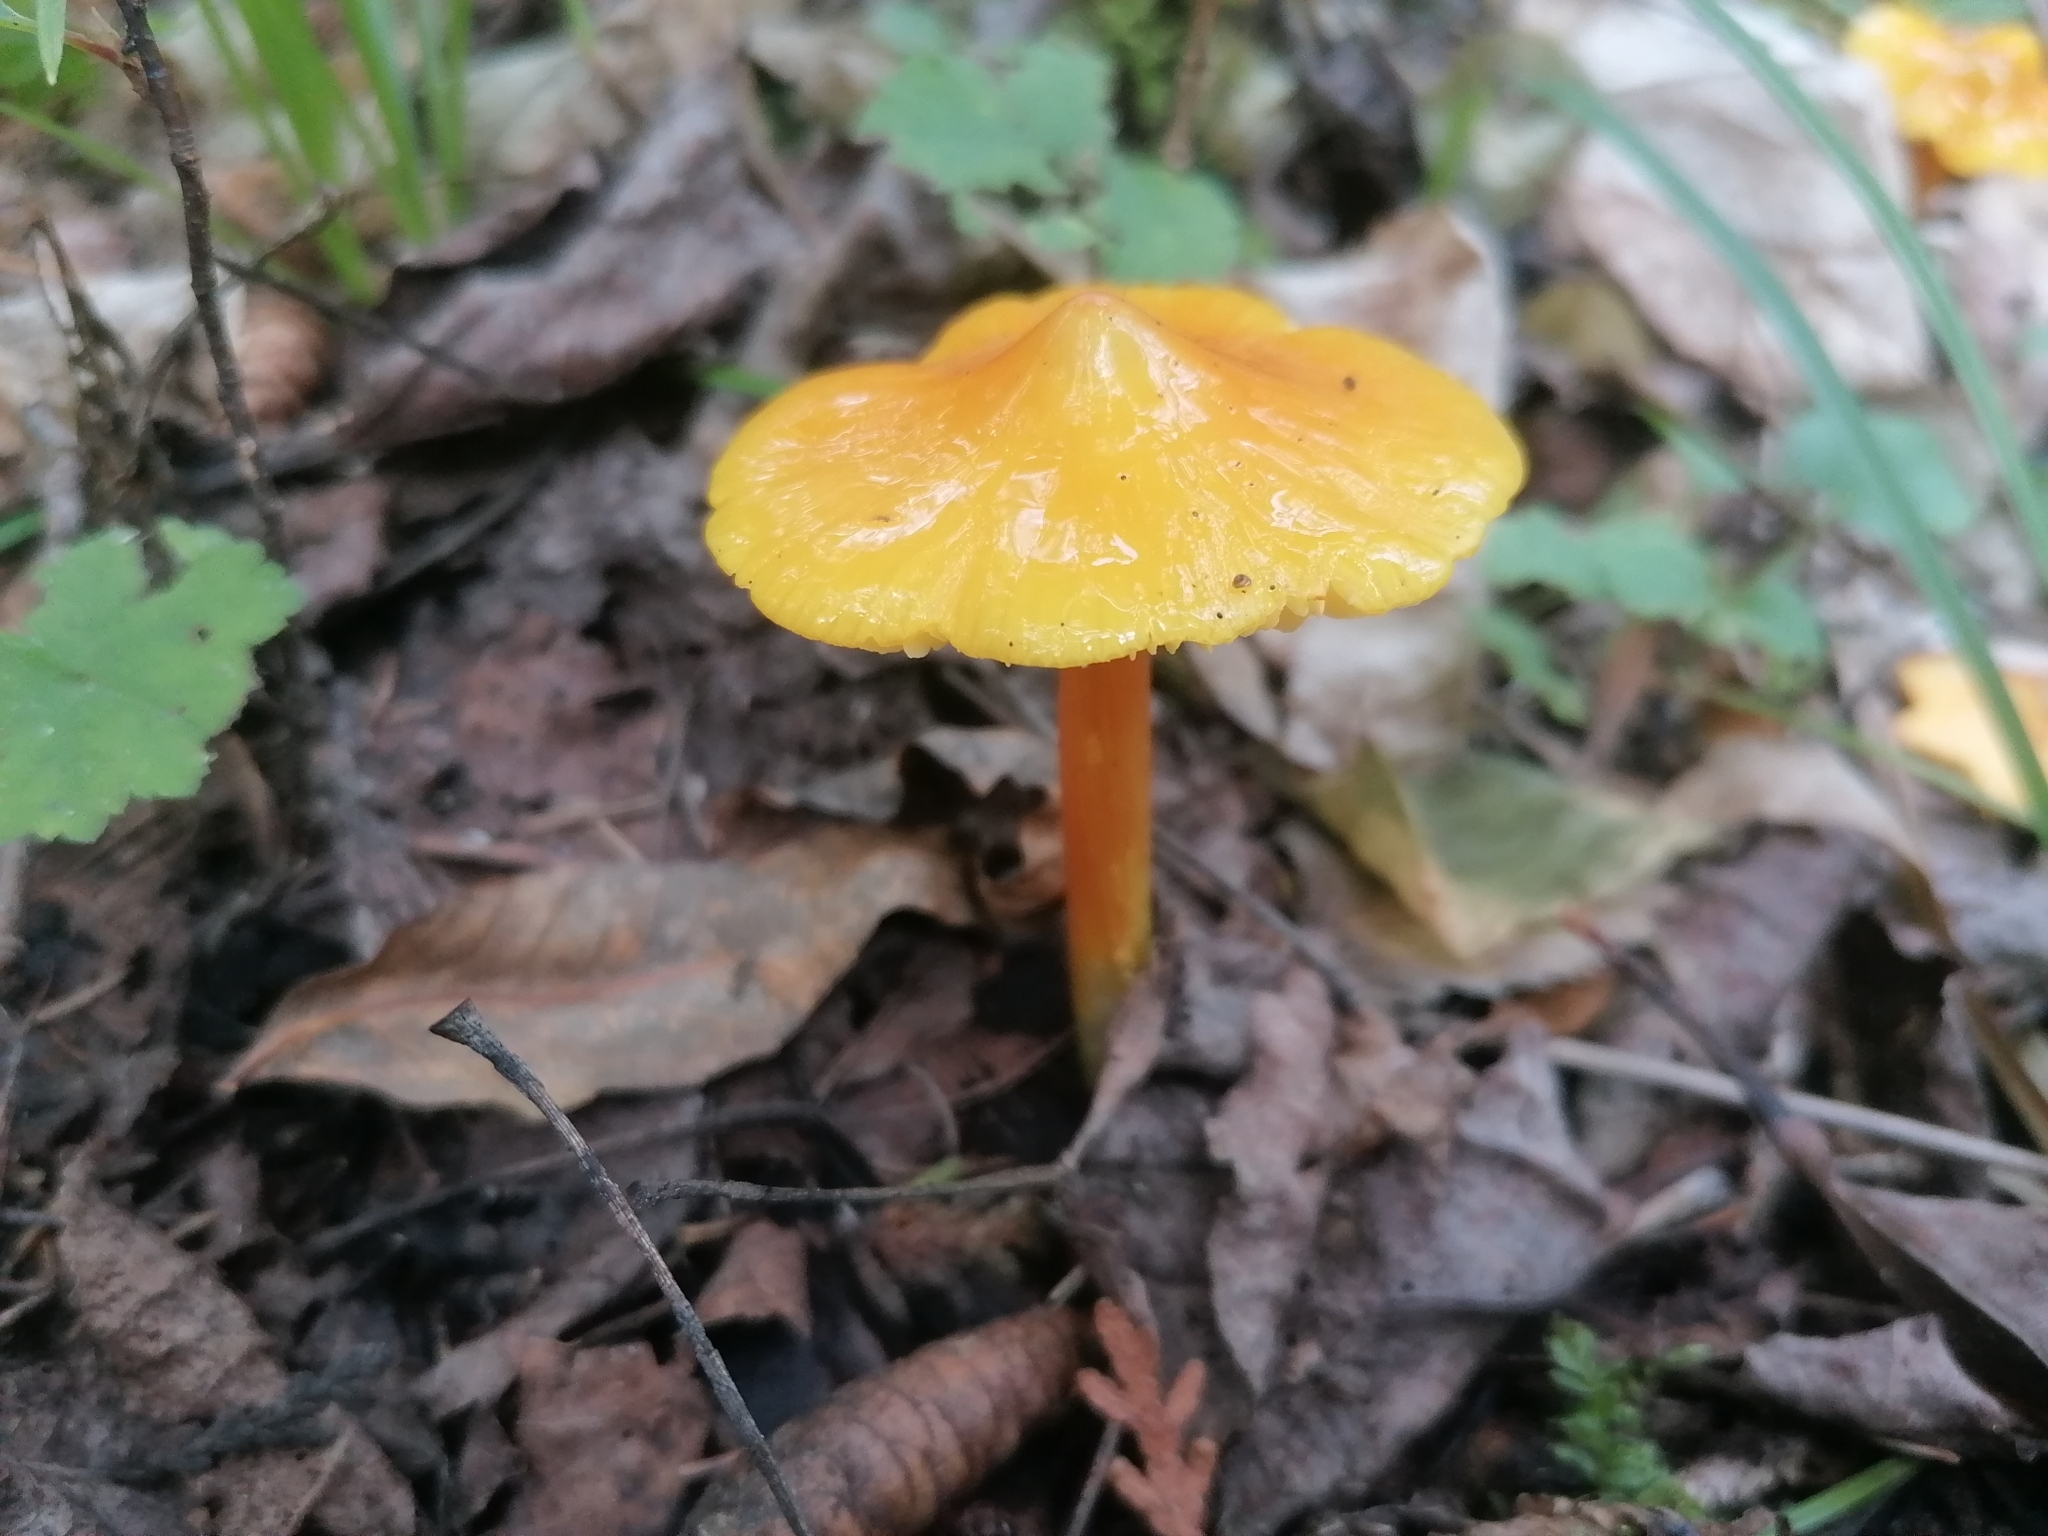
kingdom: Fungi
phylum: Basidiomycota
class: Agaricomycetes
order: Agaricales
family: Hygrophoraceae
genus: Hygrocybe
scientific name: Hygrocybe acutoconica
